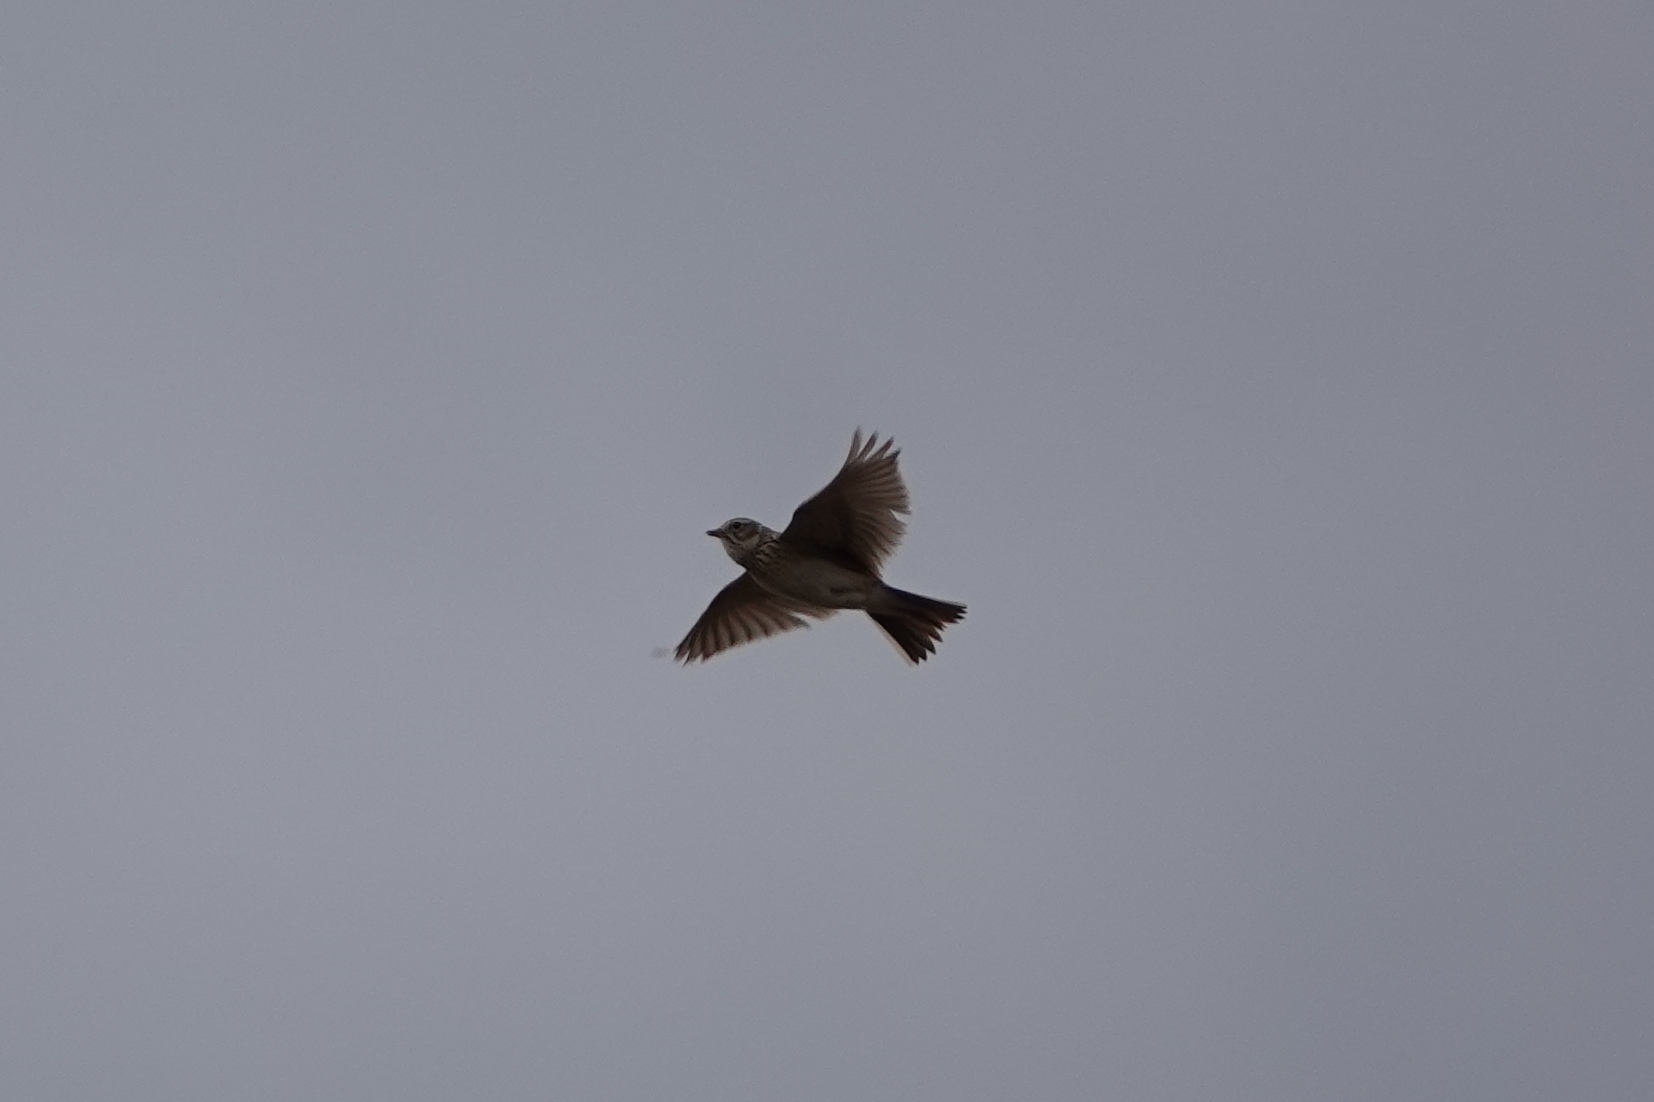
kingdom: Animalia
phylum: Chordata
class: Aves
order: Passeriformes
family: Alaudidae
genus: Alauda
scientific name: Alauda arvensis
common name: Eurasian skylark
